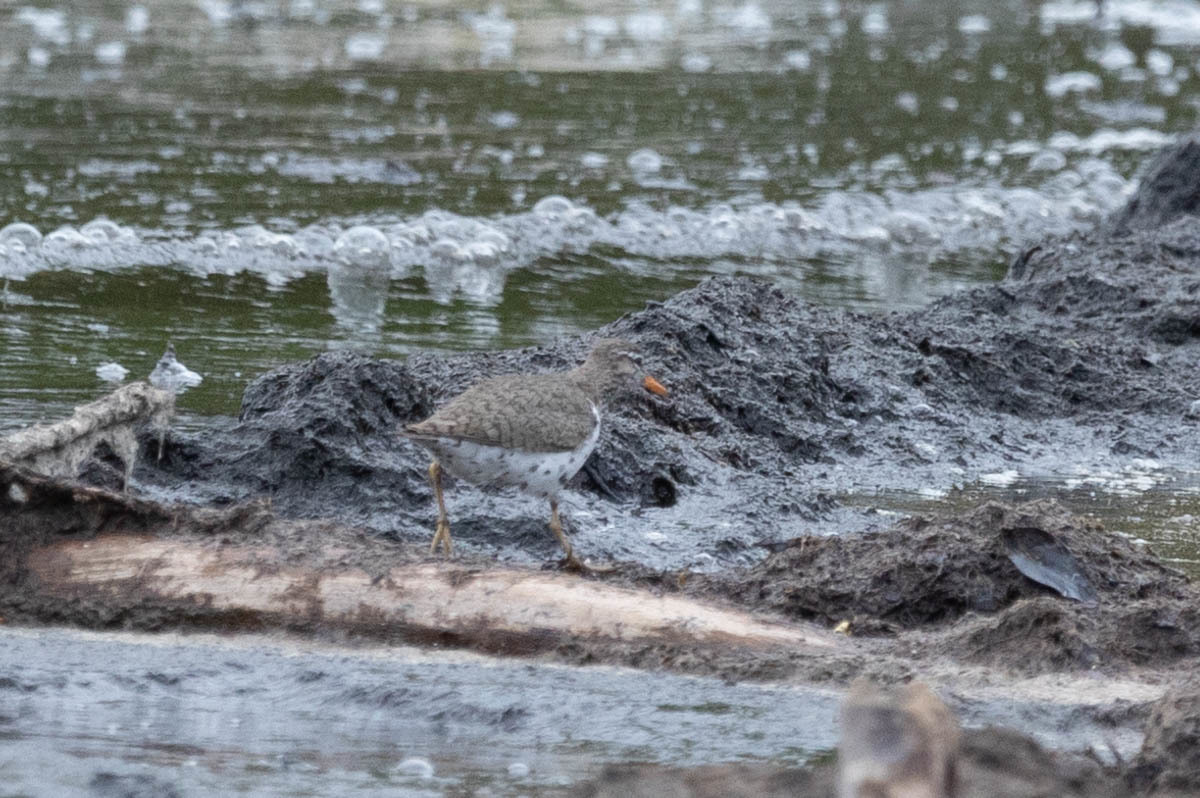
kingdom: Animalia
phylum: Chordata
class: Aves
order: Charadriiformes
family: Scolopacidae
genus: Actitis
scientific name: Actitis macularius
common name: Spotted sandpiper
